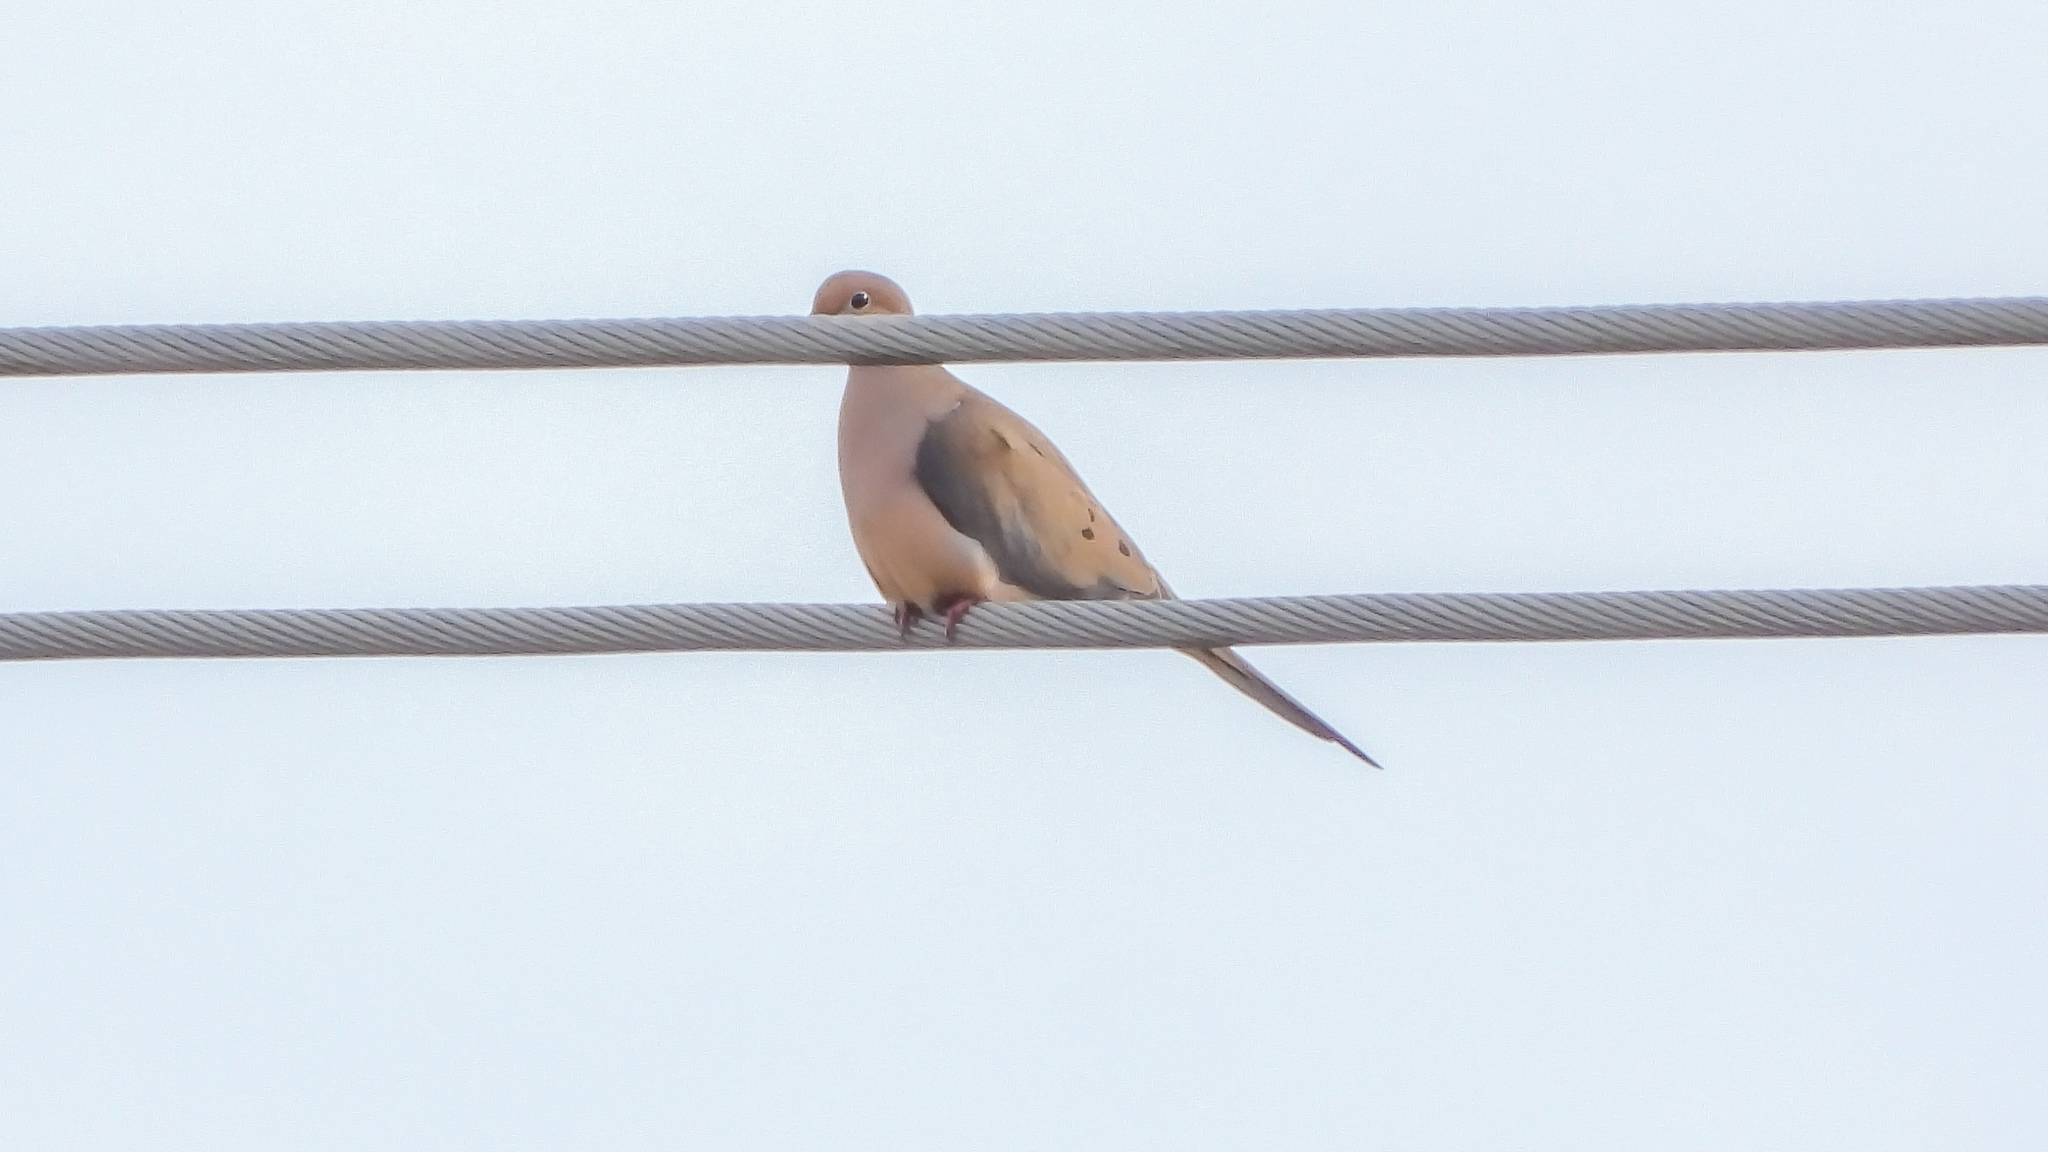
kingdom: Animalia
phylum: Chordata
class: Aves
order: Columbiformes
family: Columbidae
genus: Zenaida
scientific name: Zenaida macroura
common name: Mourning dove
